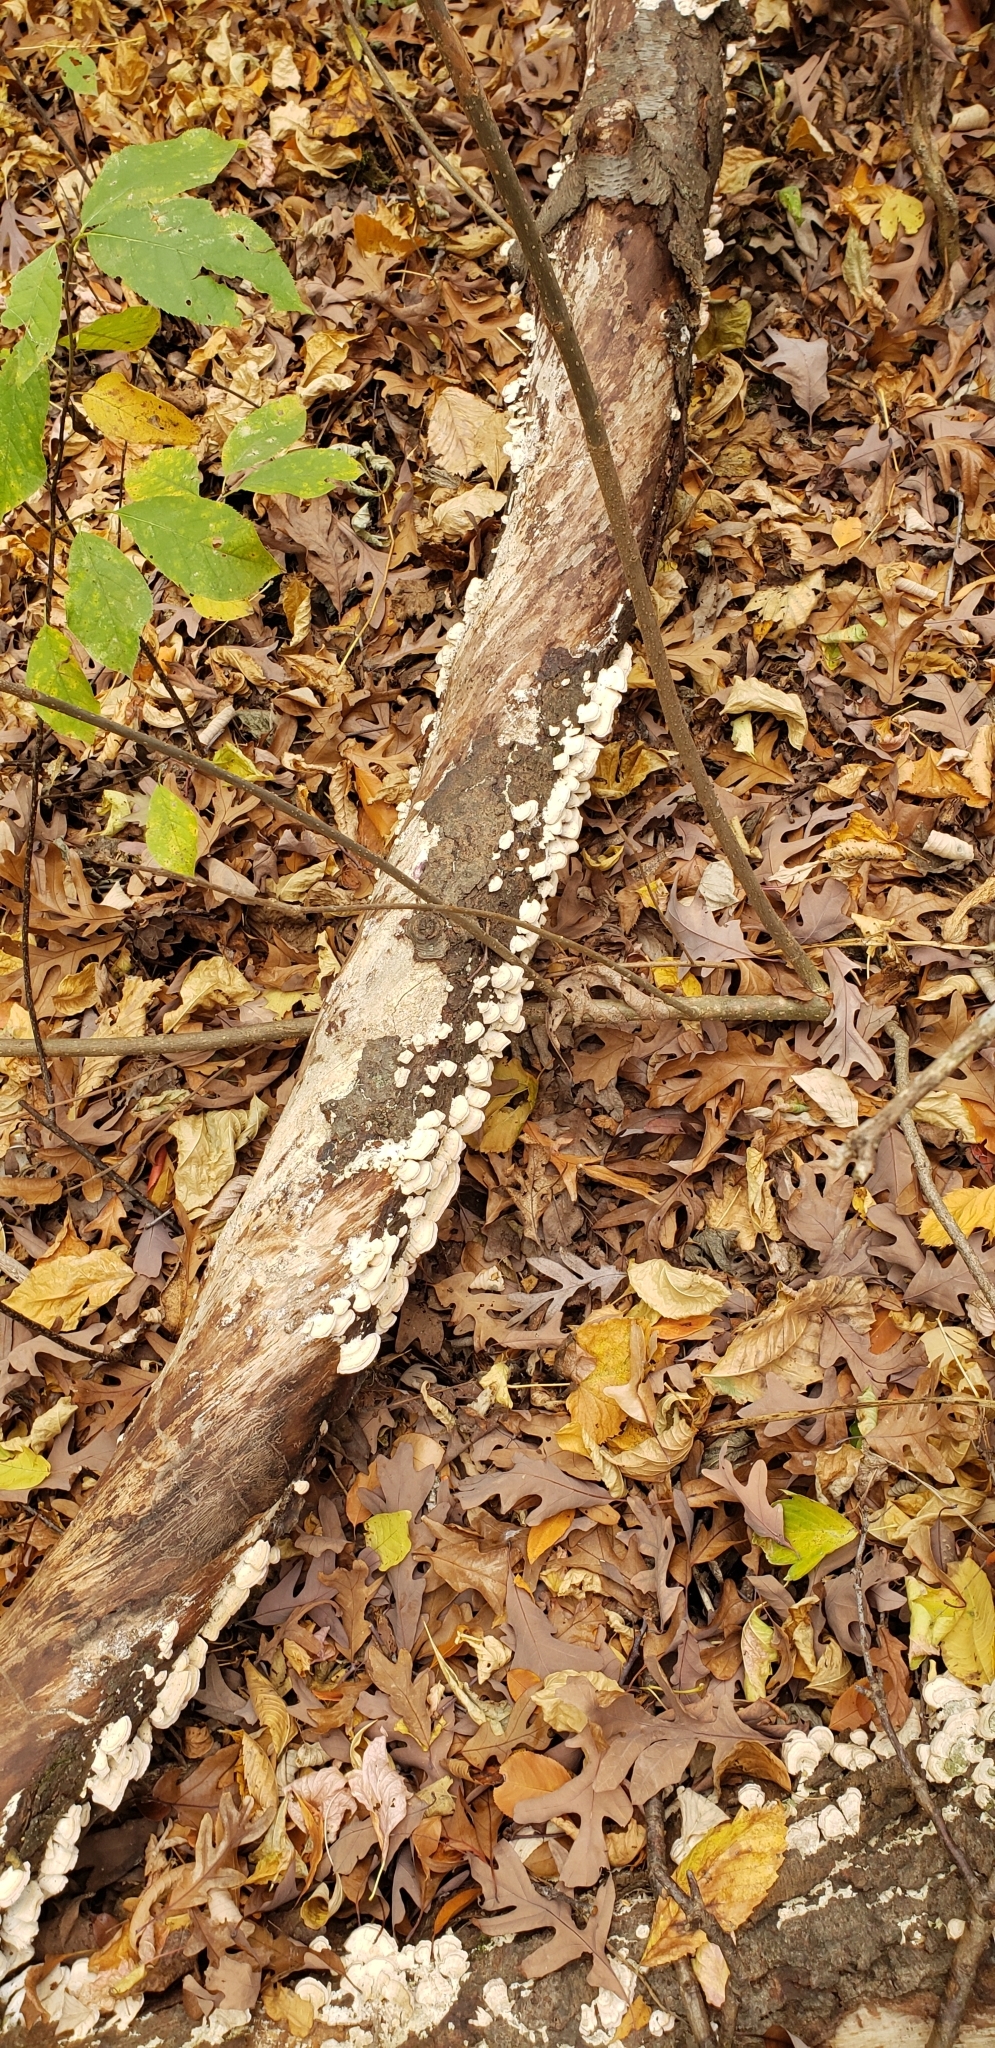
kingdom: Fungi
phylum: Basidiomycota
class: Agaricomycetes
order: Hymenochaetales
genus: Trichaptum
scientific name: Trichaptum subchartaceum
